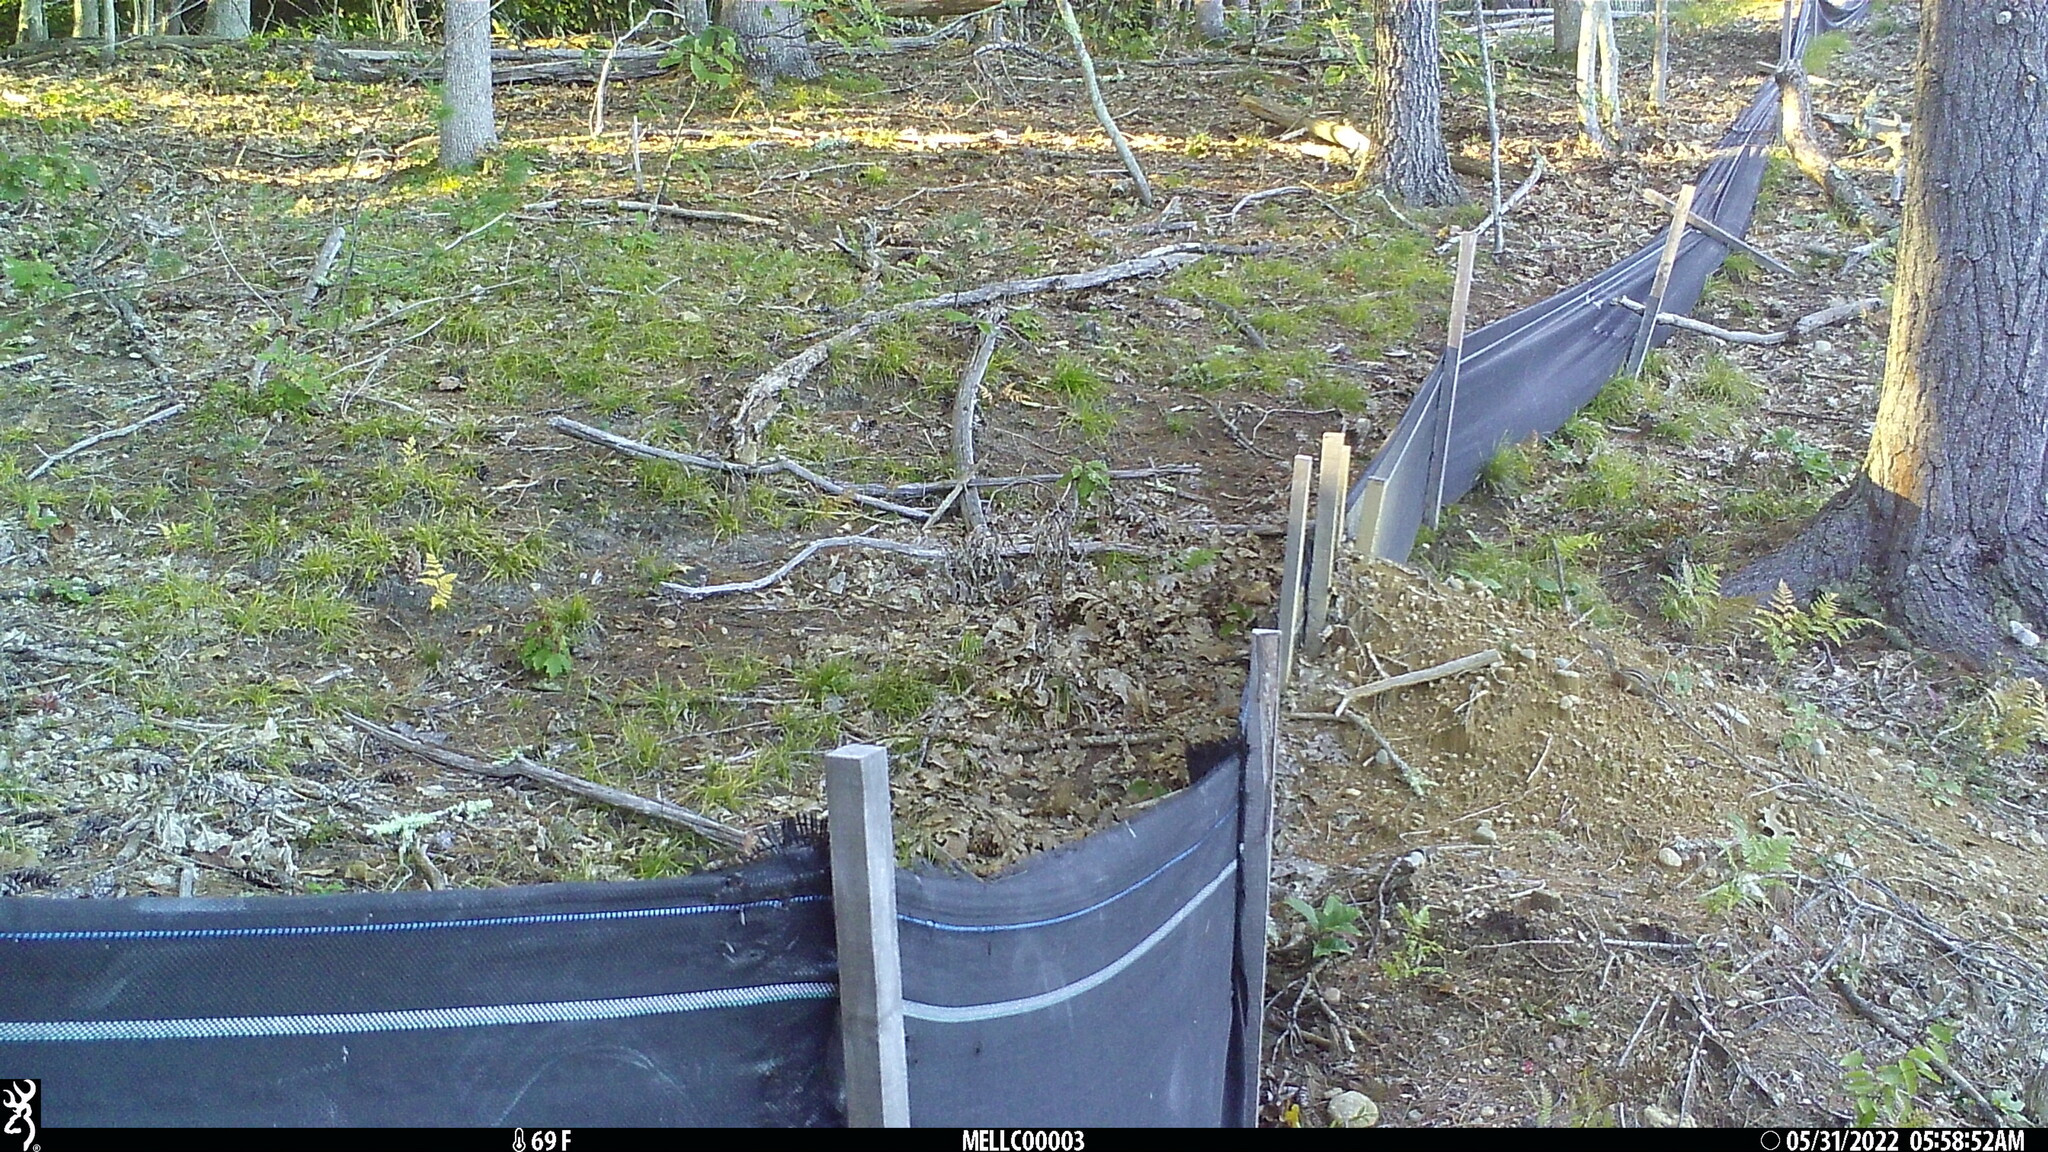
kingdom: Animalia
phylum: Chordata
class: Mammalia
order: Rodentia
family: Sciuridae
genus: Tamias
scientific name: Tamias striatus
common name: Eastern chipmunk
